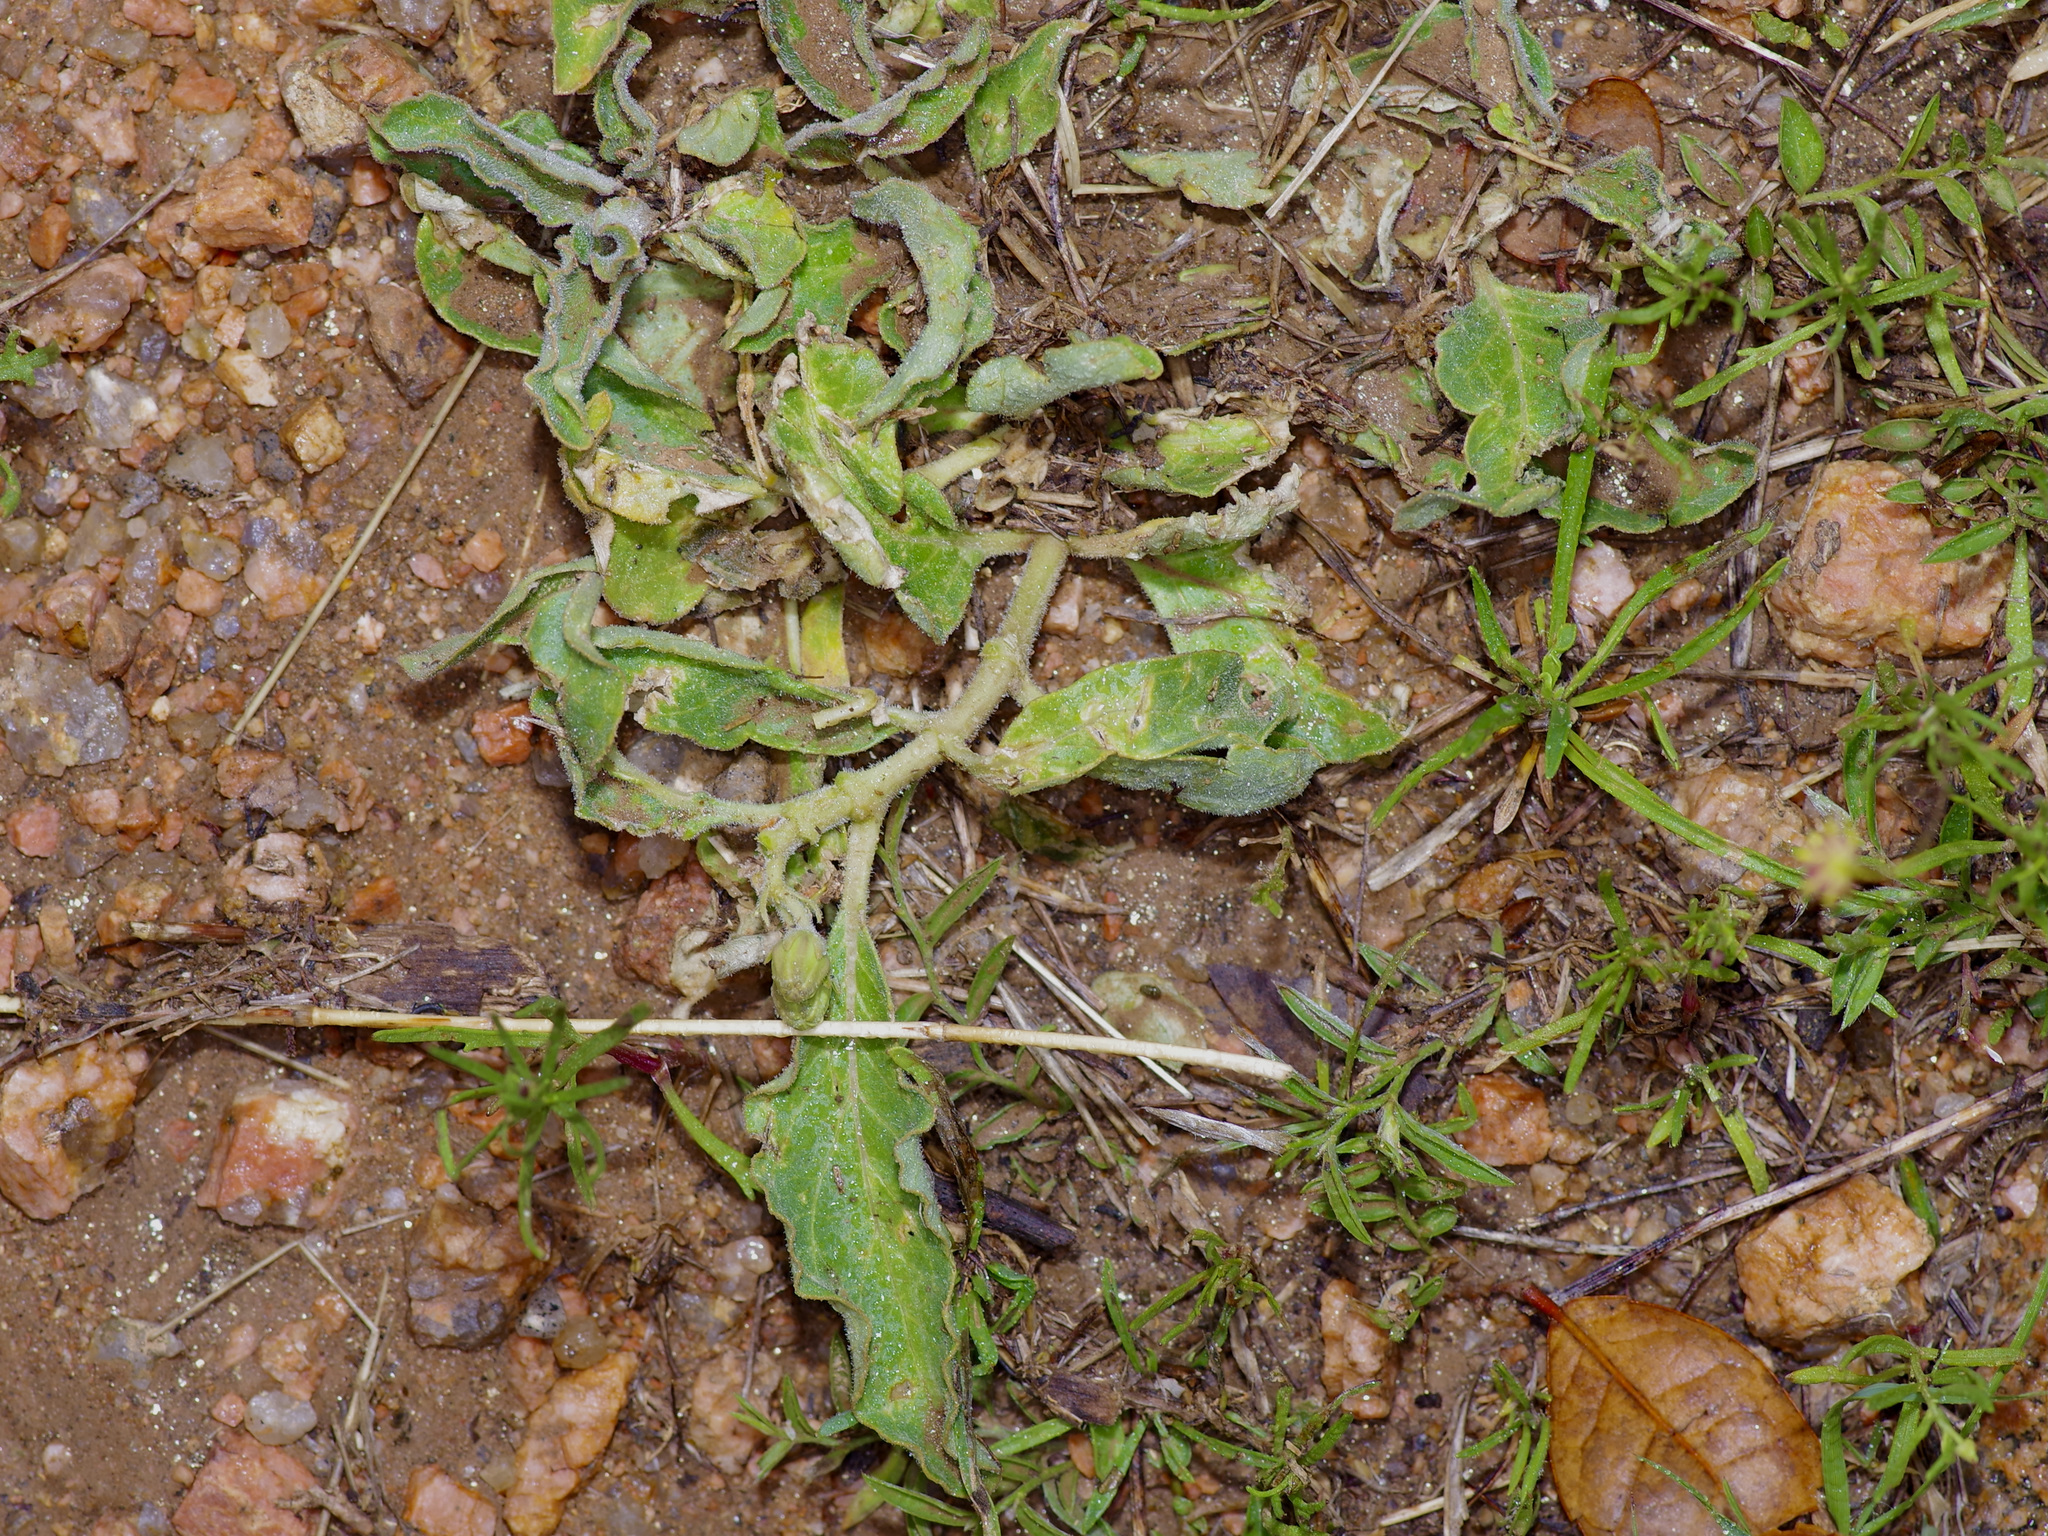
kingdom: Plantae
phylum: Tracheophyta
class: Magnoliopsida
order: Gentianales
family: Apocynaceae
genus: Asclepias
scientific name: Asclepias oenotheroides
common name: Zizotes milkweed
